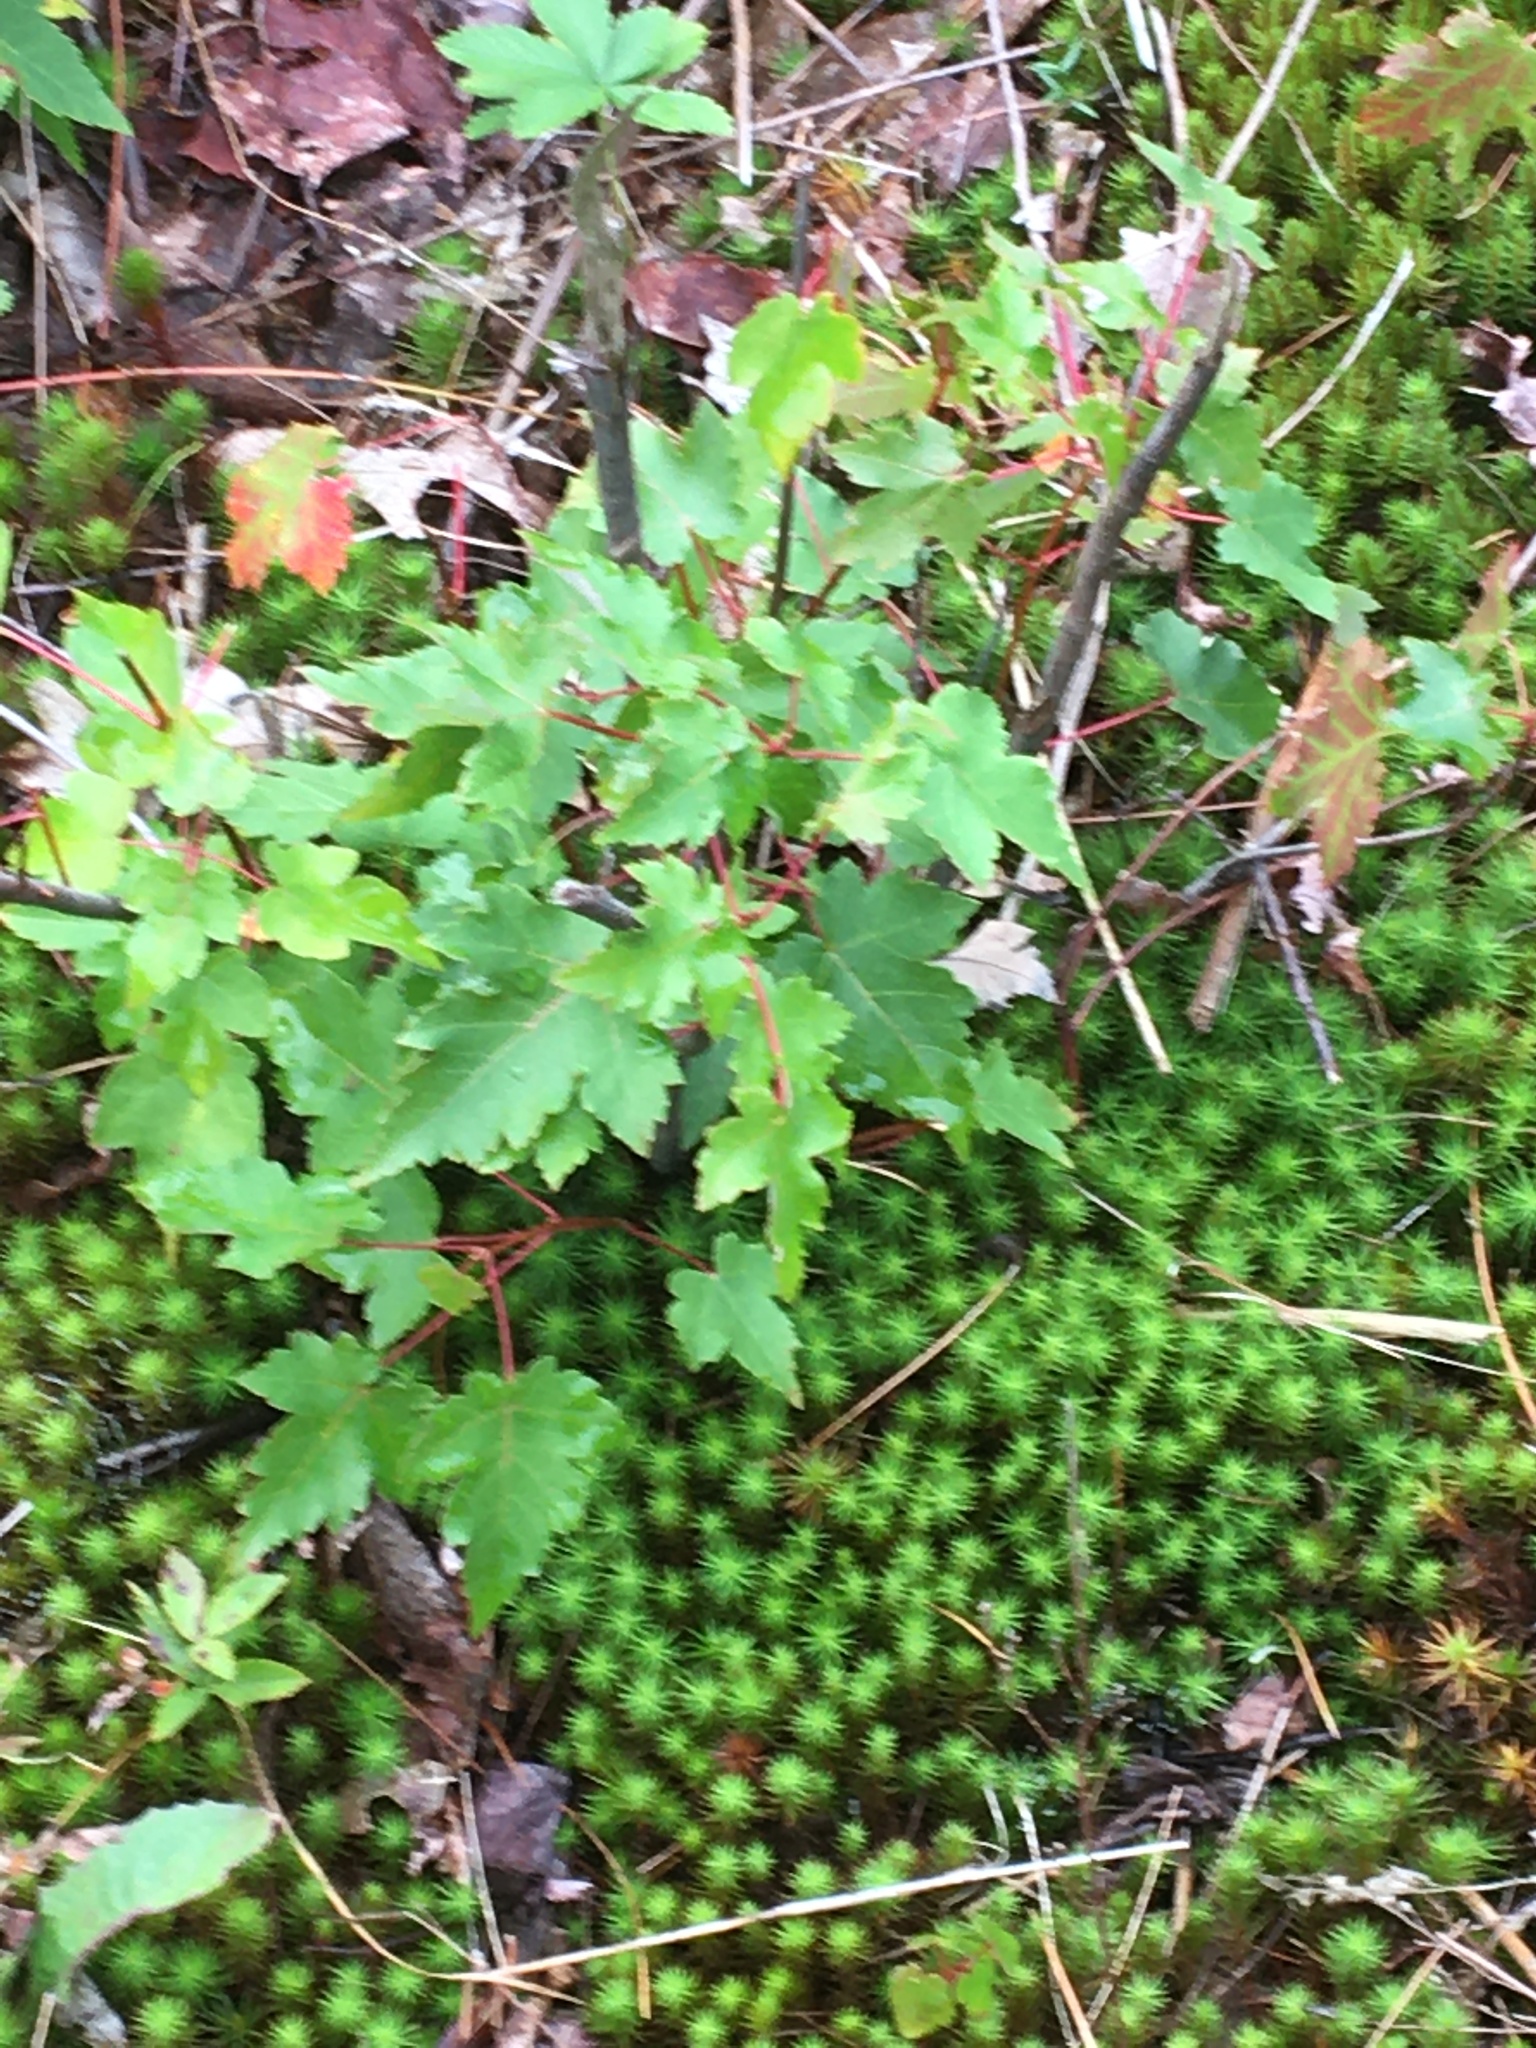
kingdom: Plantae
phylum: Tracheophyta
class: Magnoliopsida
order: Sapindales
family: Sapindaceae
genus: Acer
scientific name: Acer rubrum
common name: Red maple
